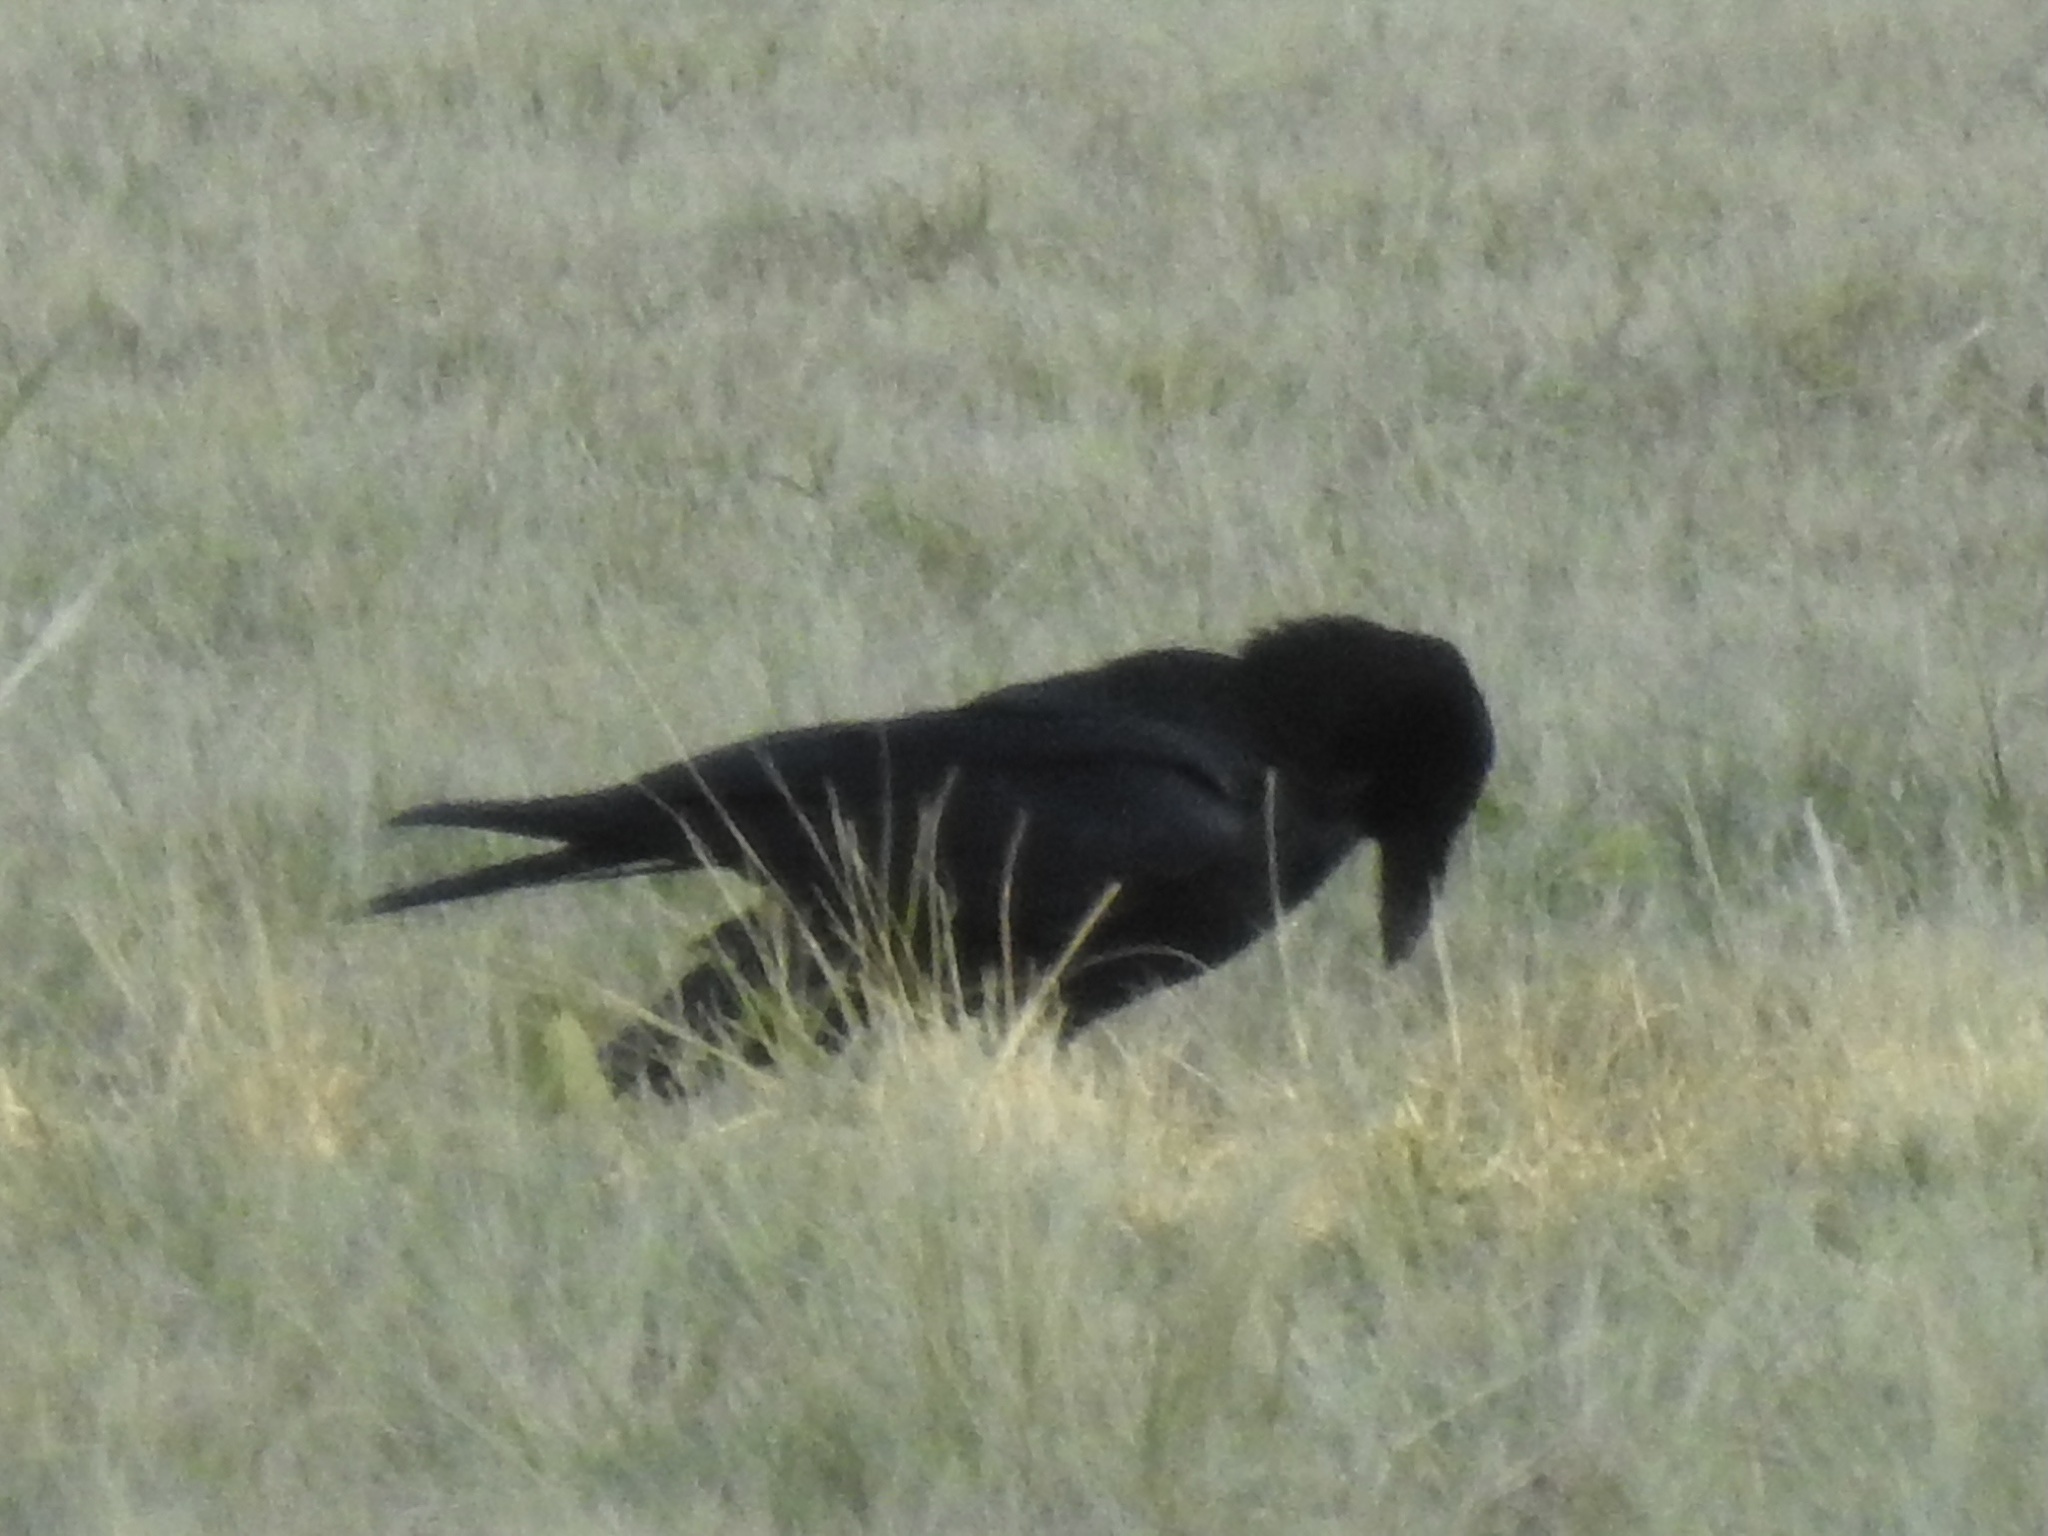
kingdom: Animalia
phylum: Chordata
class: Aves
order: Passeriformes
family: Corvidae
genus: Corvus
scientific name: Corvus corax
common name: Common raven
